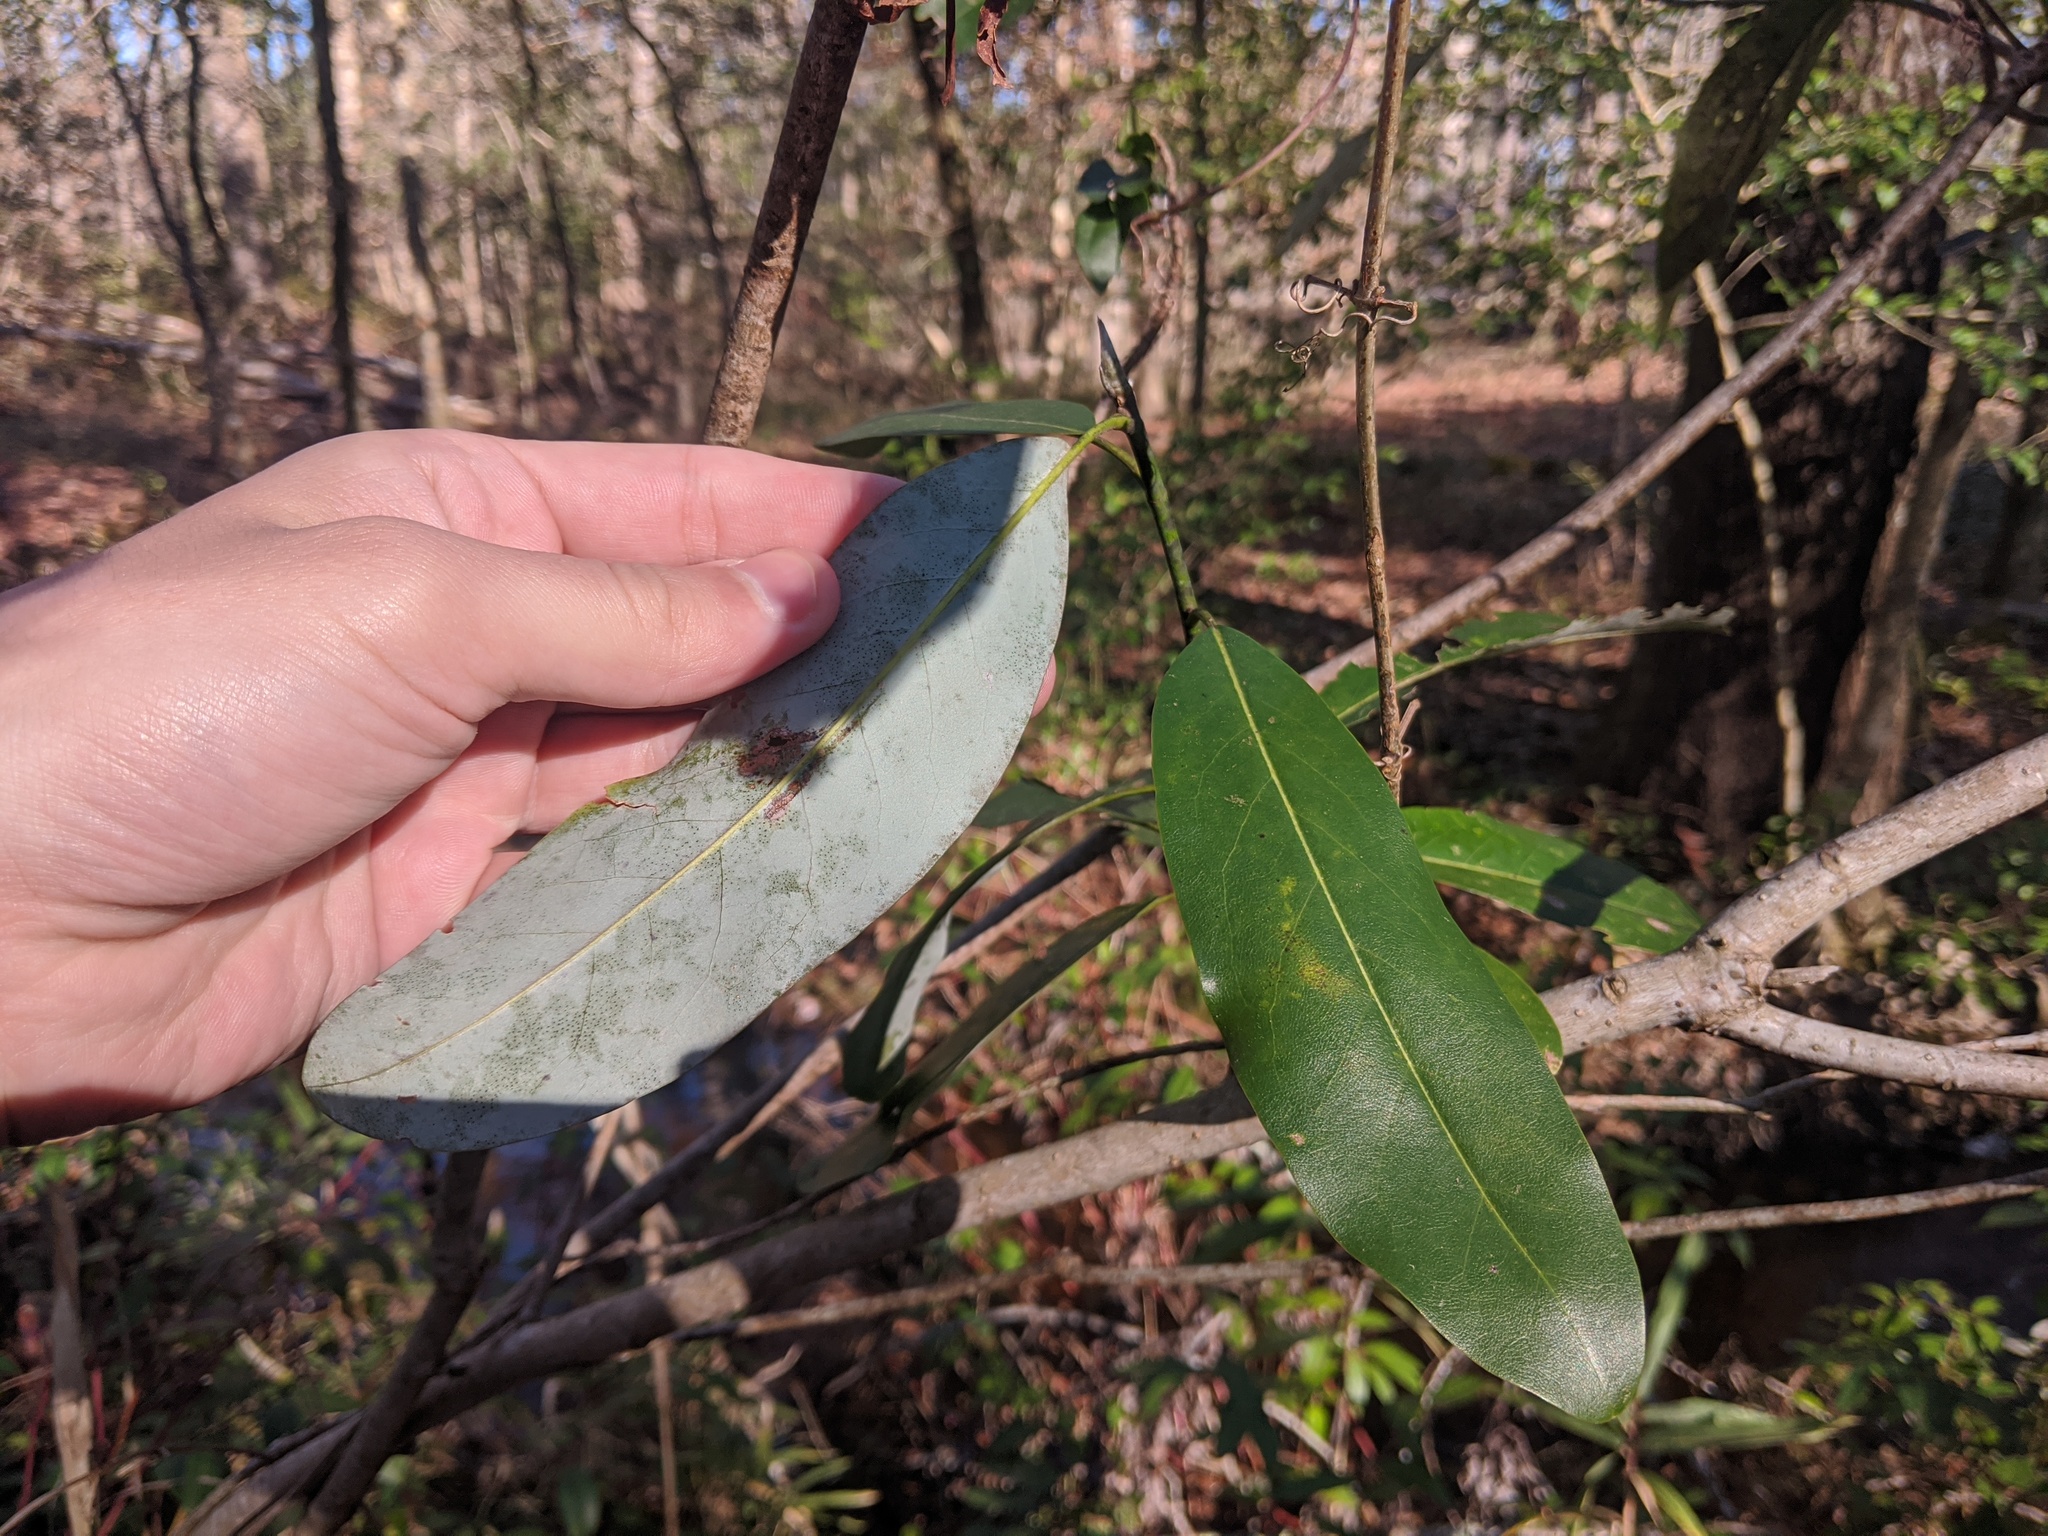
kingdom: Plantae
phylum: Tracheophyta
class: Magnoliopsida
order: Magnoliales
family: Magnoliaceae
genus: Magnolia
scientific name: Magnolia virginiana
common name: Swamp bay
